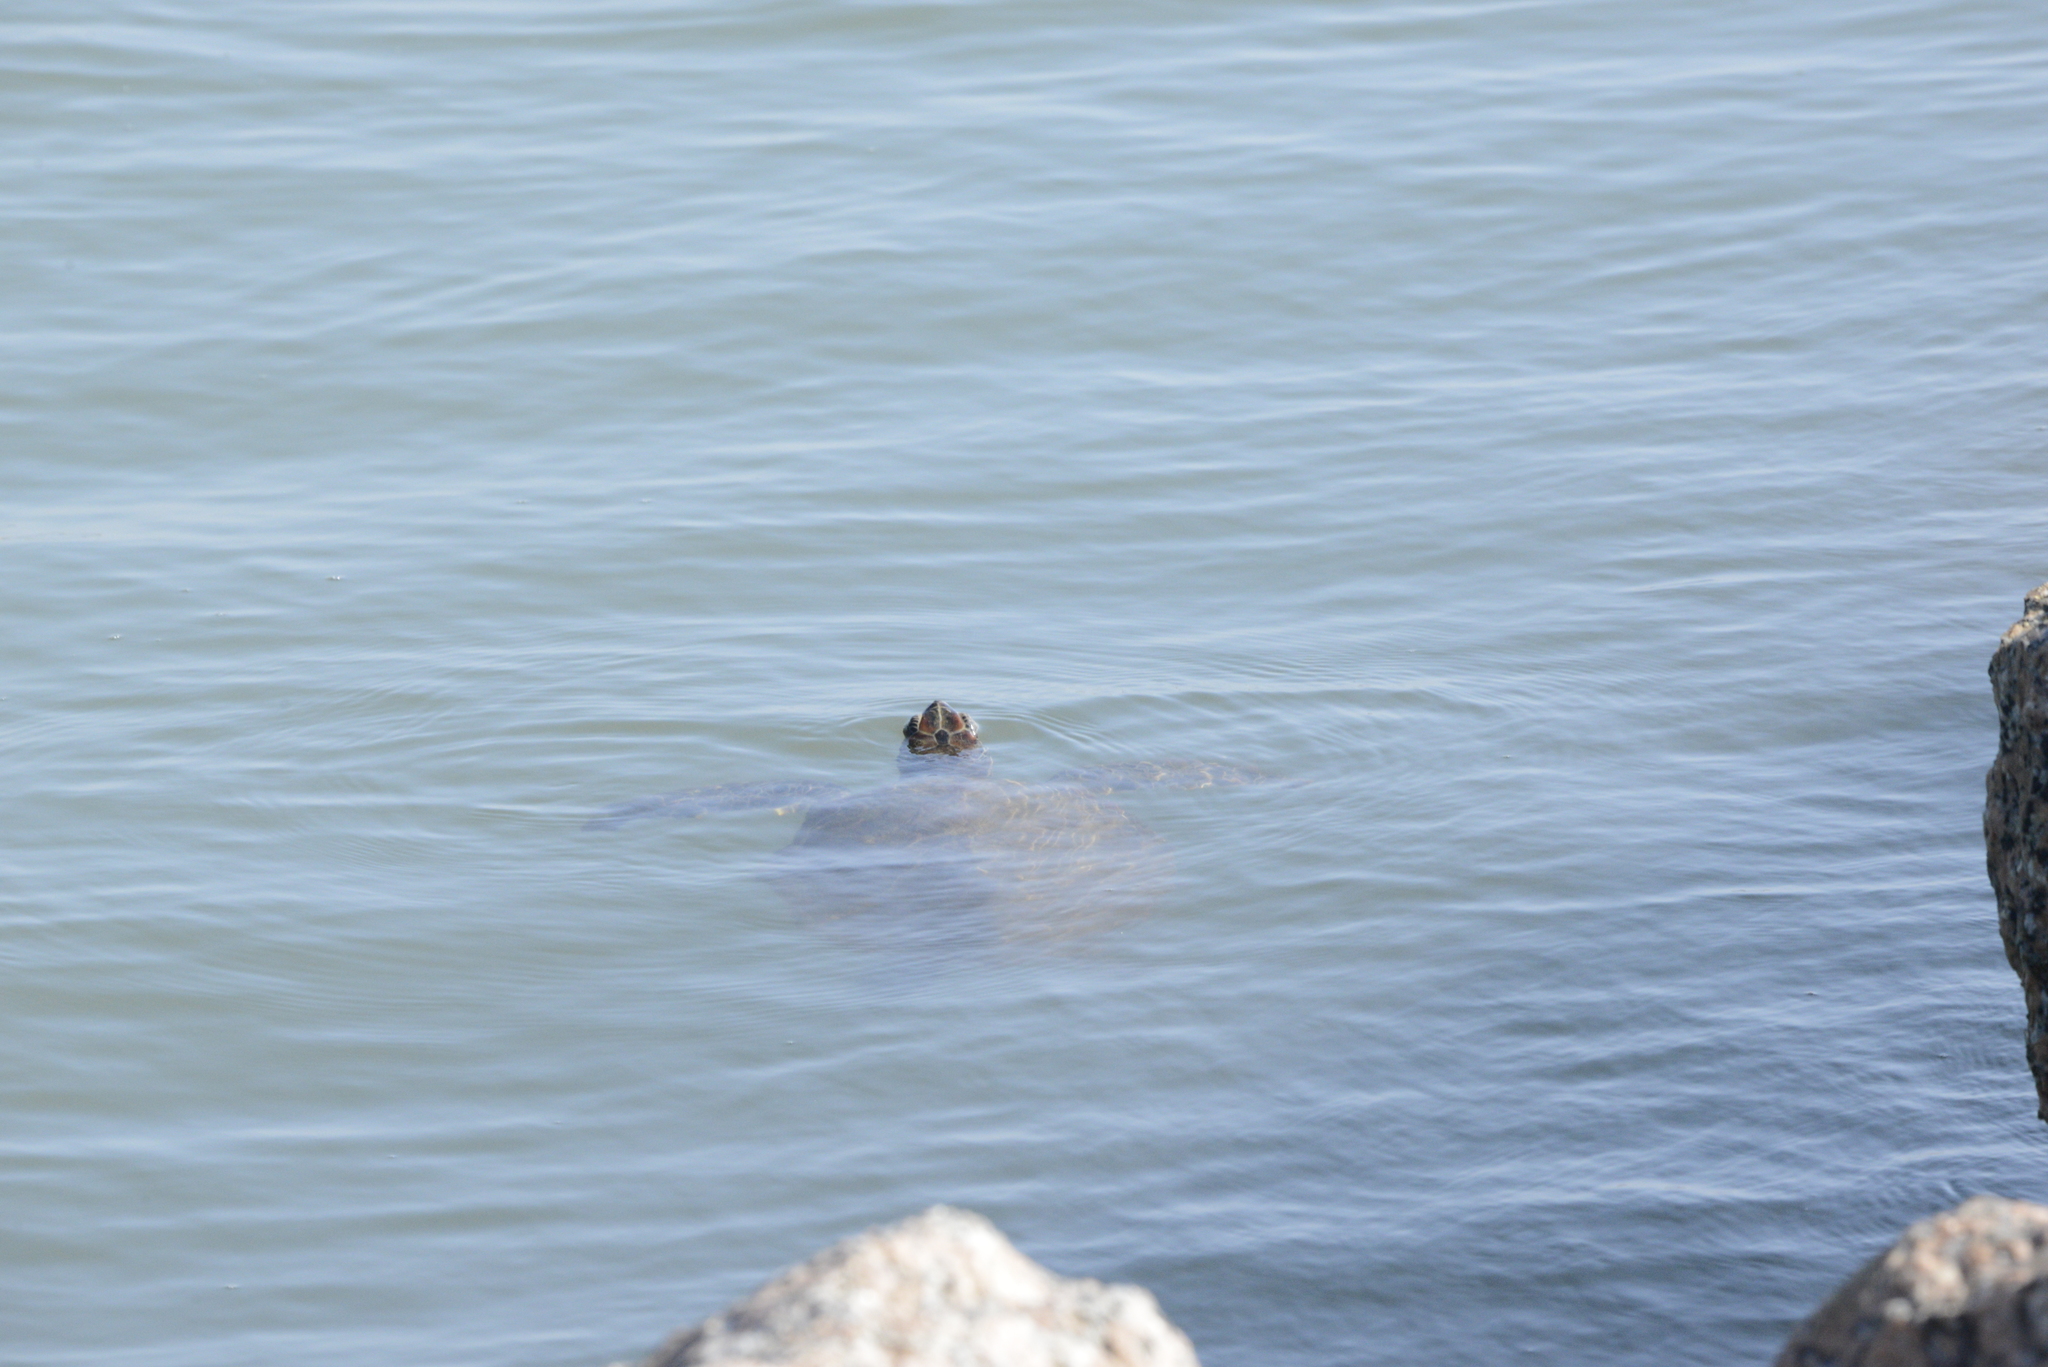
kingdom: Animalia
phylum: Chordata
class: Testudines
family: Cheloniidae
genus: Chelonia
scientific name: Chelonia mydas
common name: Green turtle
